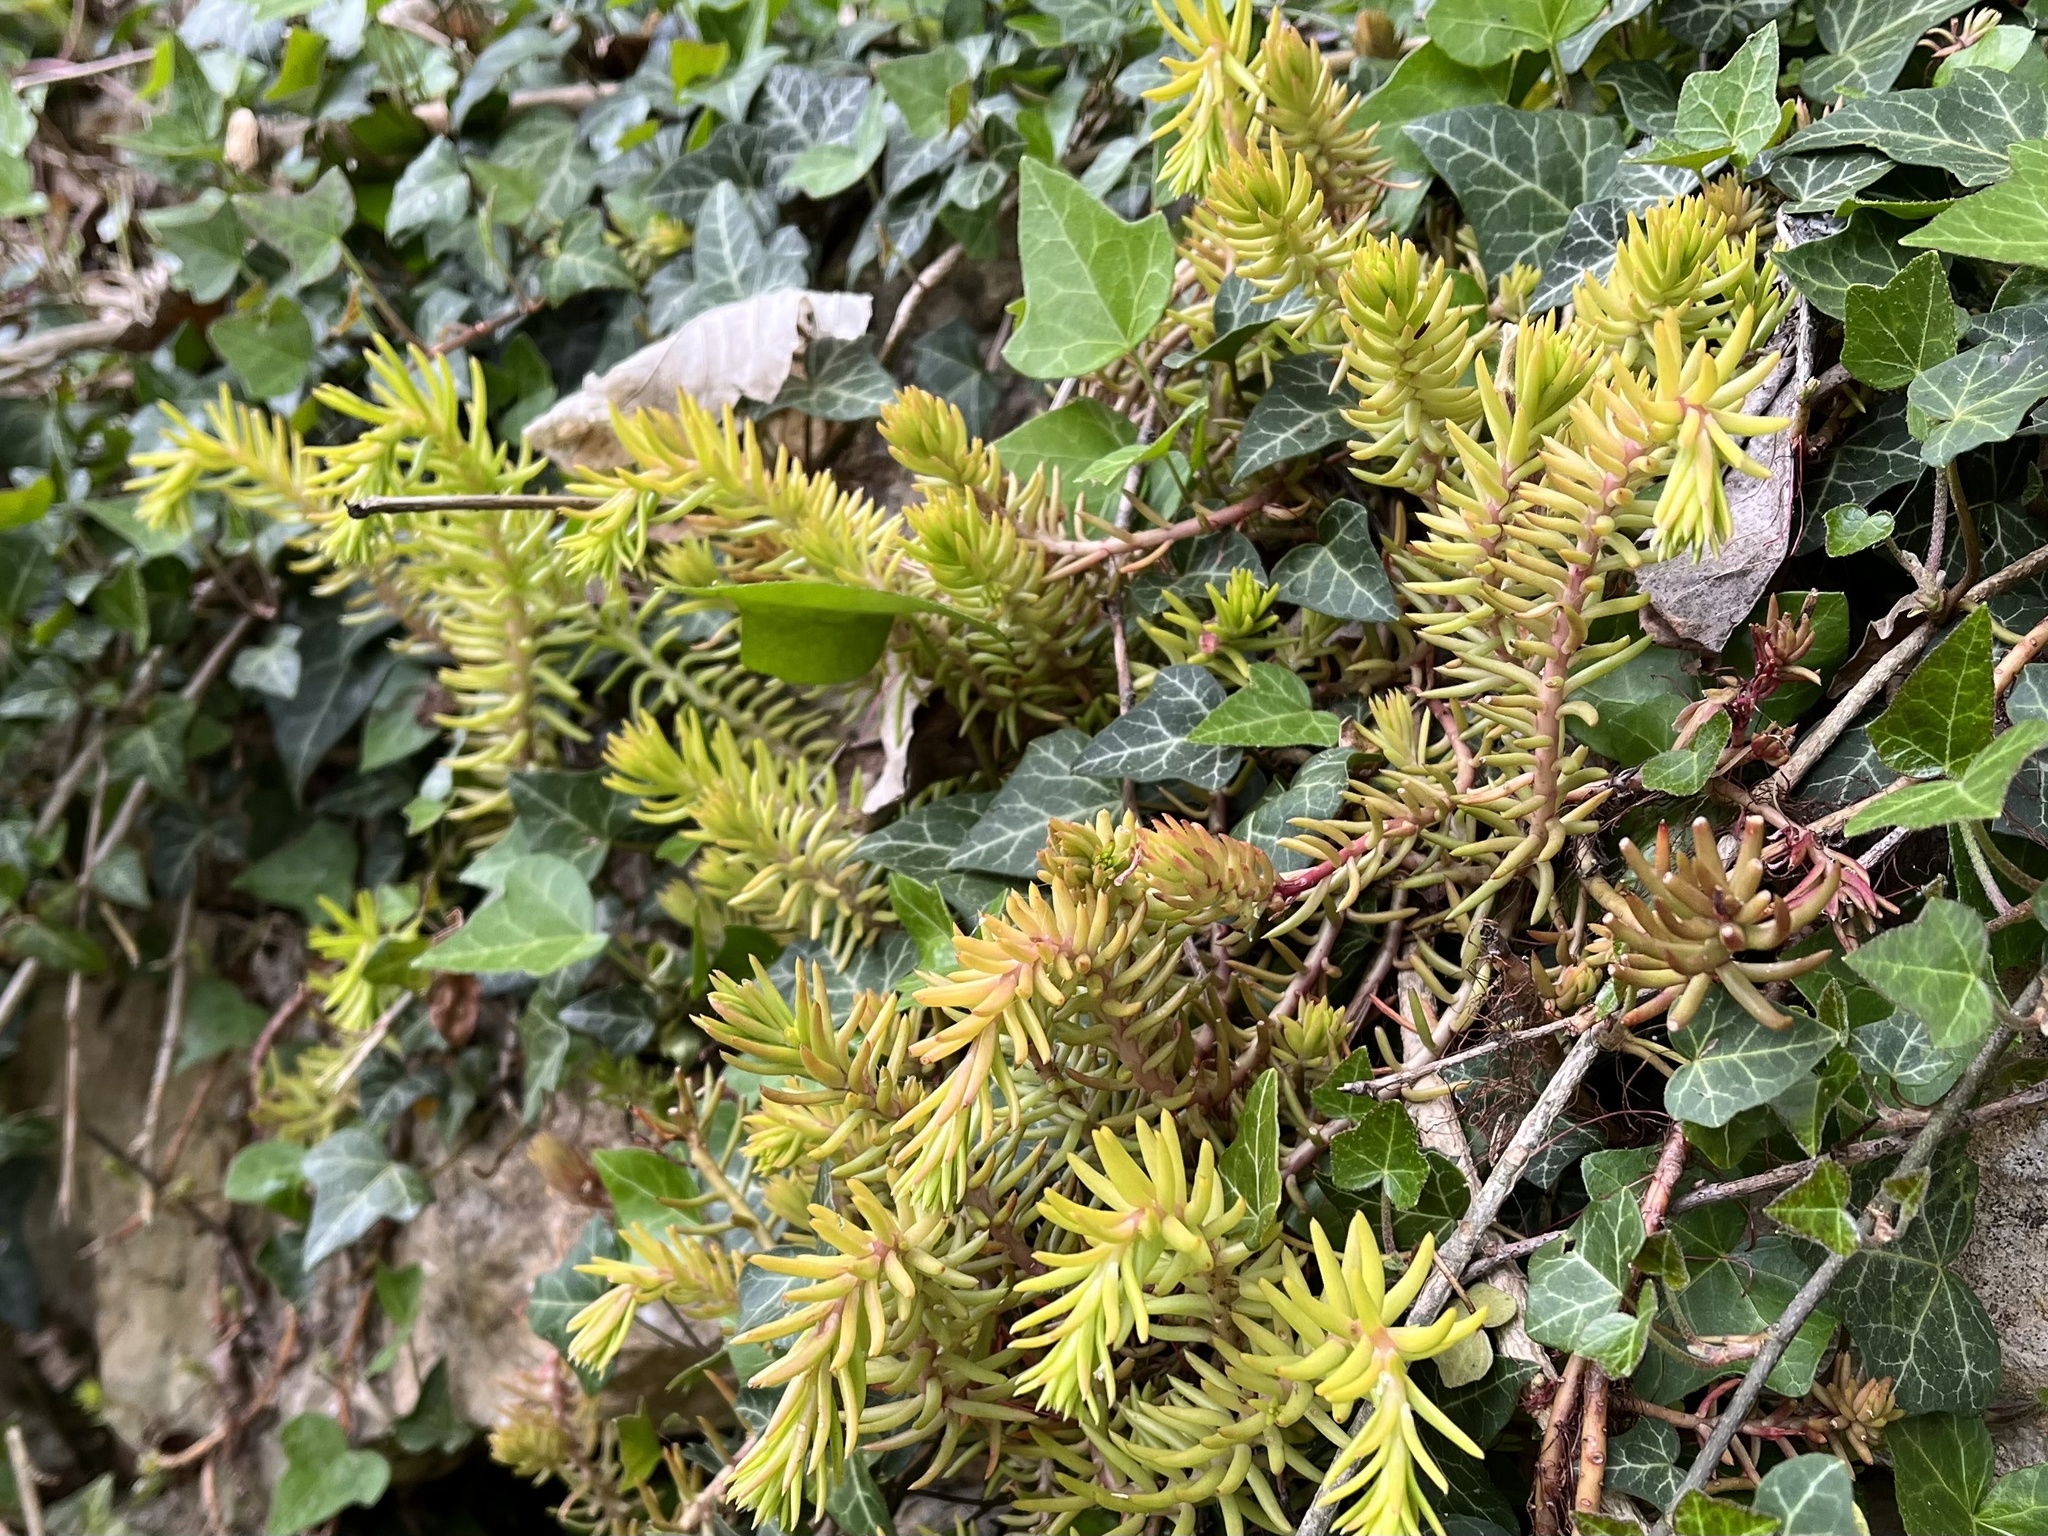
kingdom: Plantae
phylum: Tracheophyta
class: Magnoliopsida
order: Saxifragales
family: Crassulaceae
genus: Petrosedum
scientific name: Petrosedum rupestre
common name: Jenny's stonecrop
